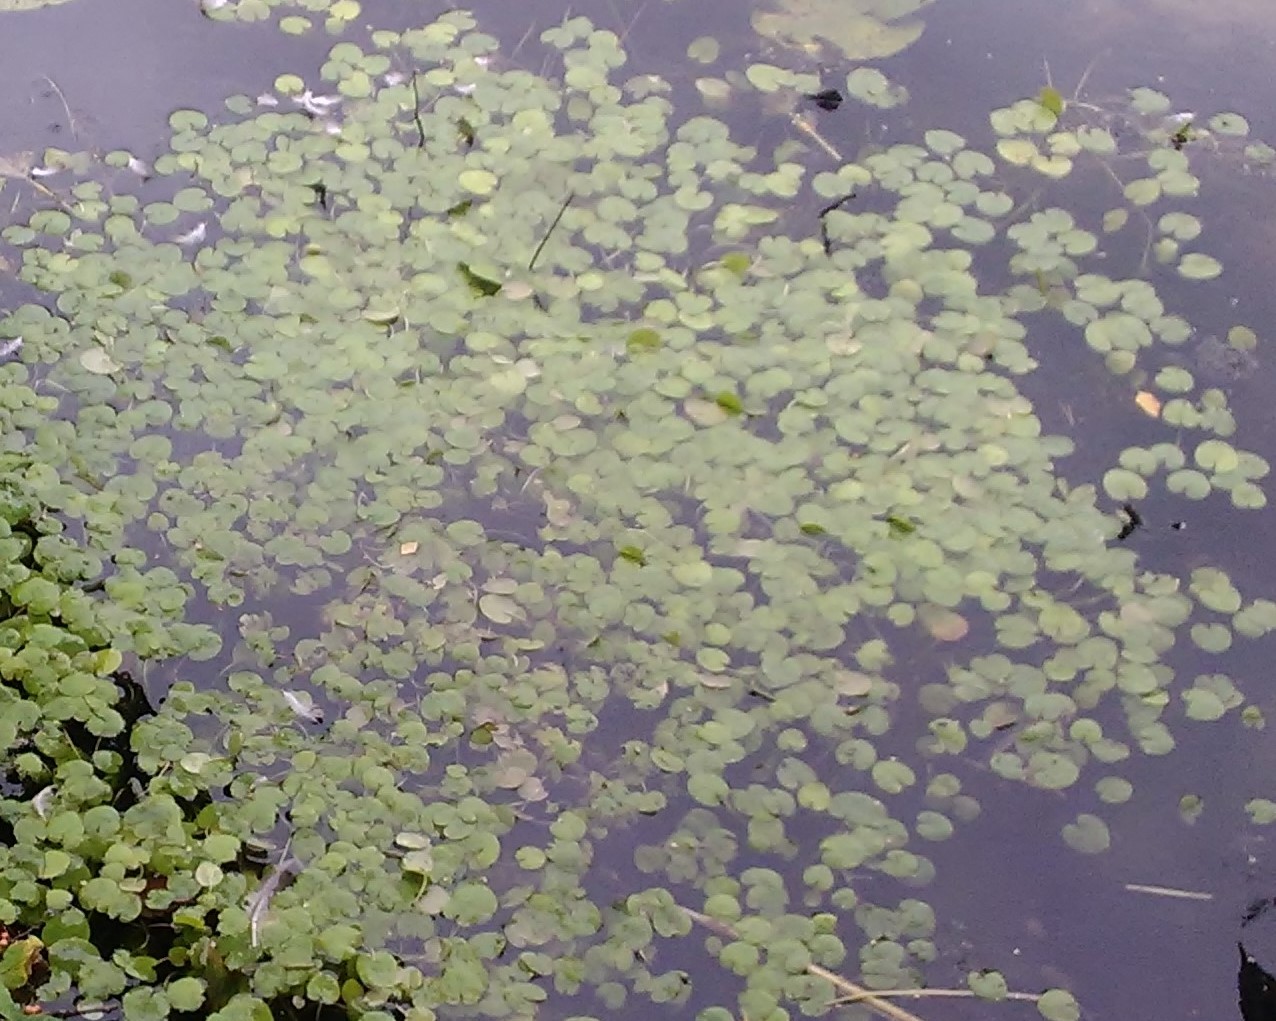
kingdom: Plantae
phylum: Tracheophyta
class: Liliopsida
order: Alismatales
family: Hydrocharitaceae
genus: Hydrocharis
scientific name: Hydrocharis morsus-ranae
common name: Frogbit
